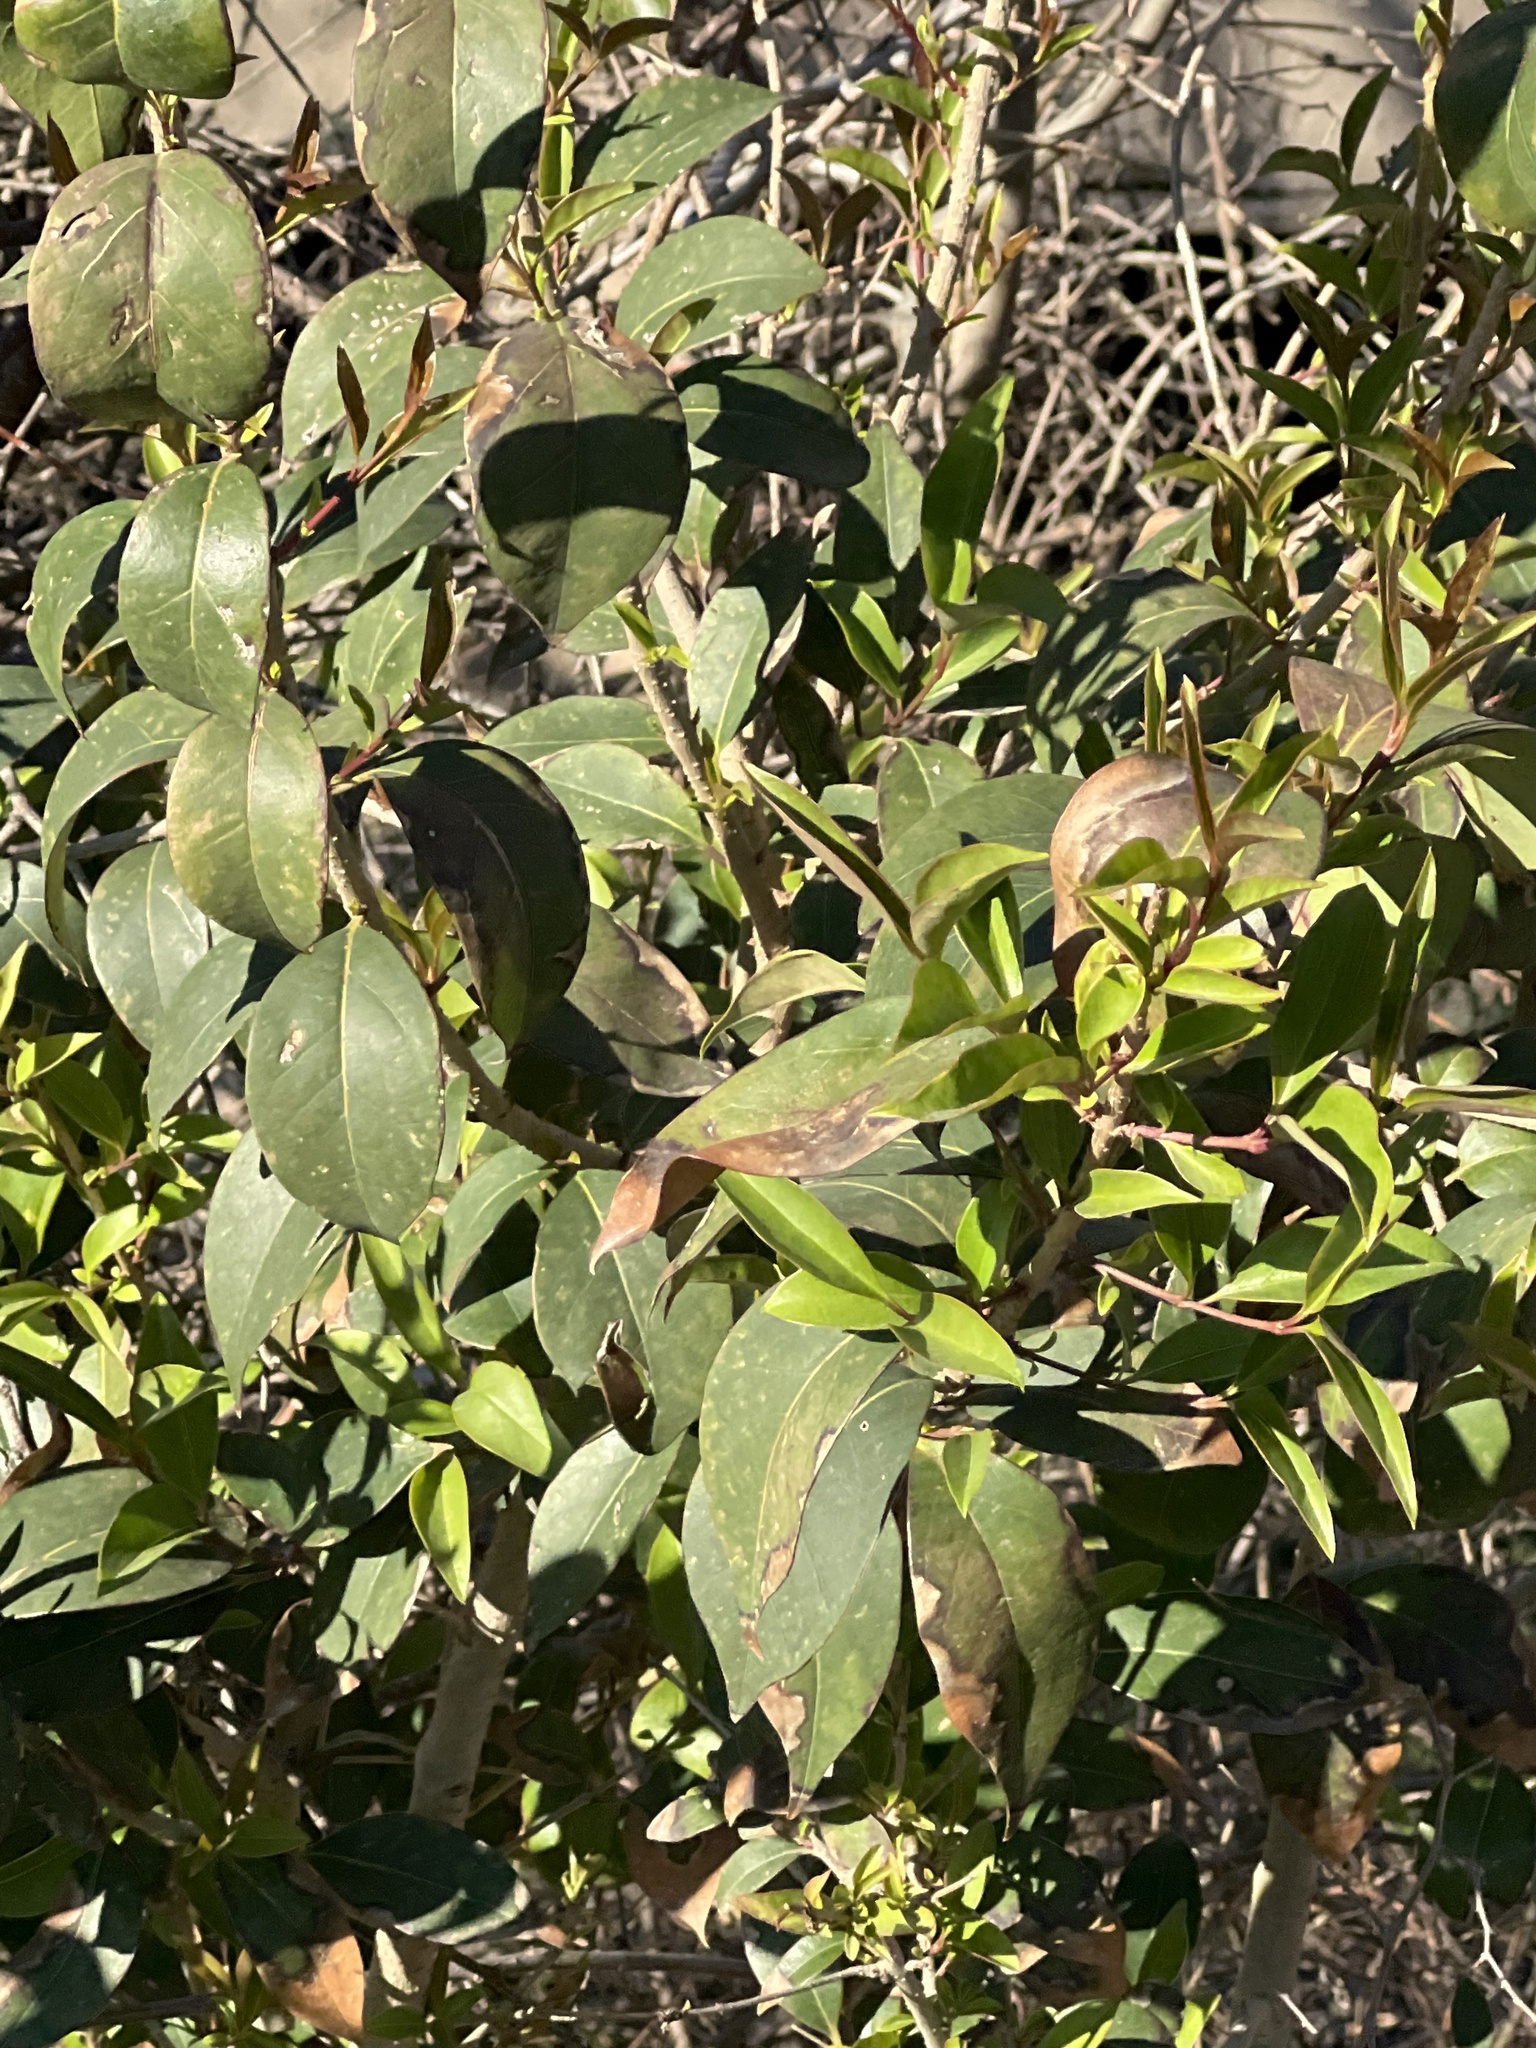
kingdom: Plantae
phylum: Tracheophyta
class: Magnoliopsida
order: Lamiales
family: Oleaceae
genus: Ligustrum
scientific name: Ligustrum lucidum
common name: Glossy privet
